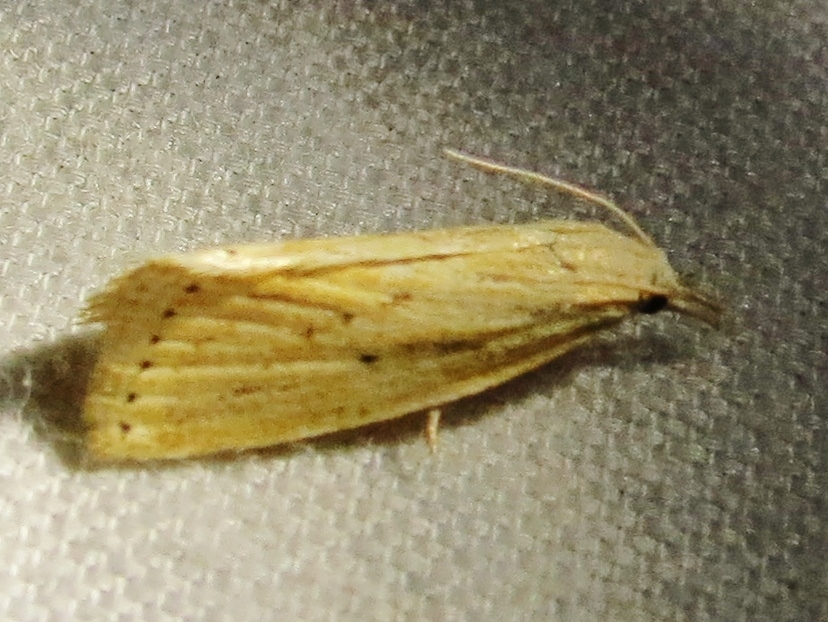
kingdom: Animalia
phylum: Arthropoda
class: Insecta
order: Lepidoptera
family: Crambidae
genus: Diatraea
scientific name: Diatraea lisetta
